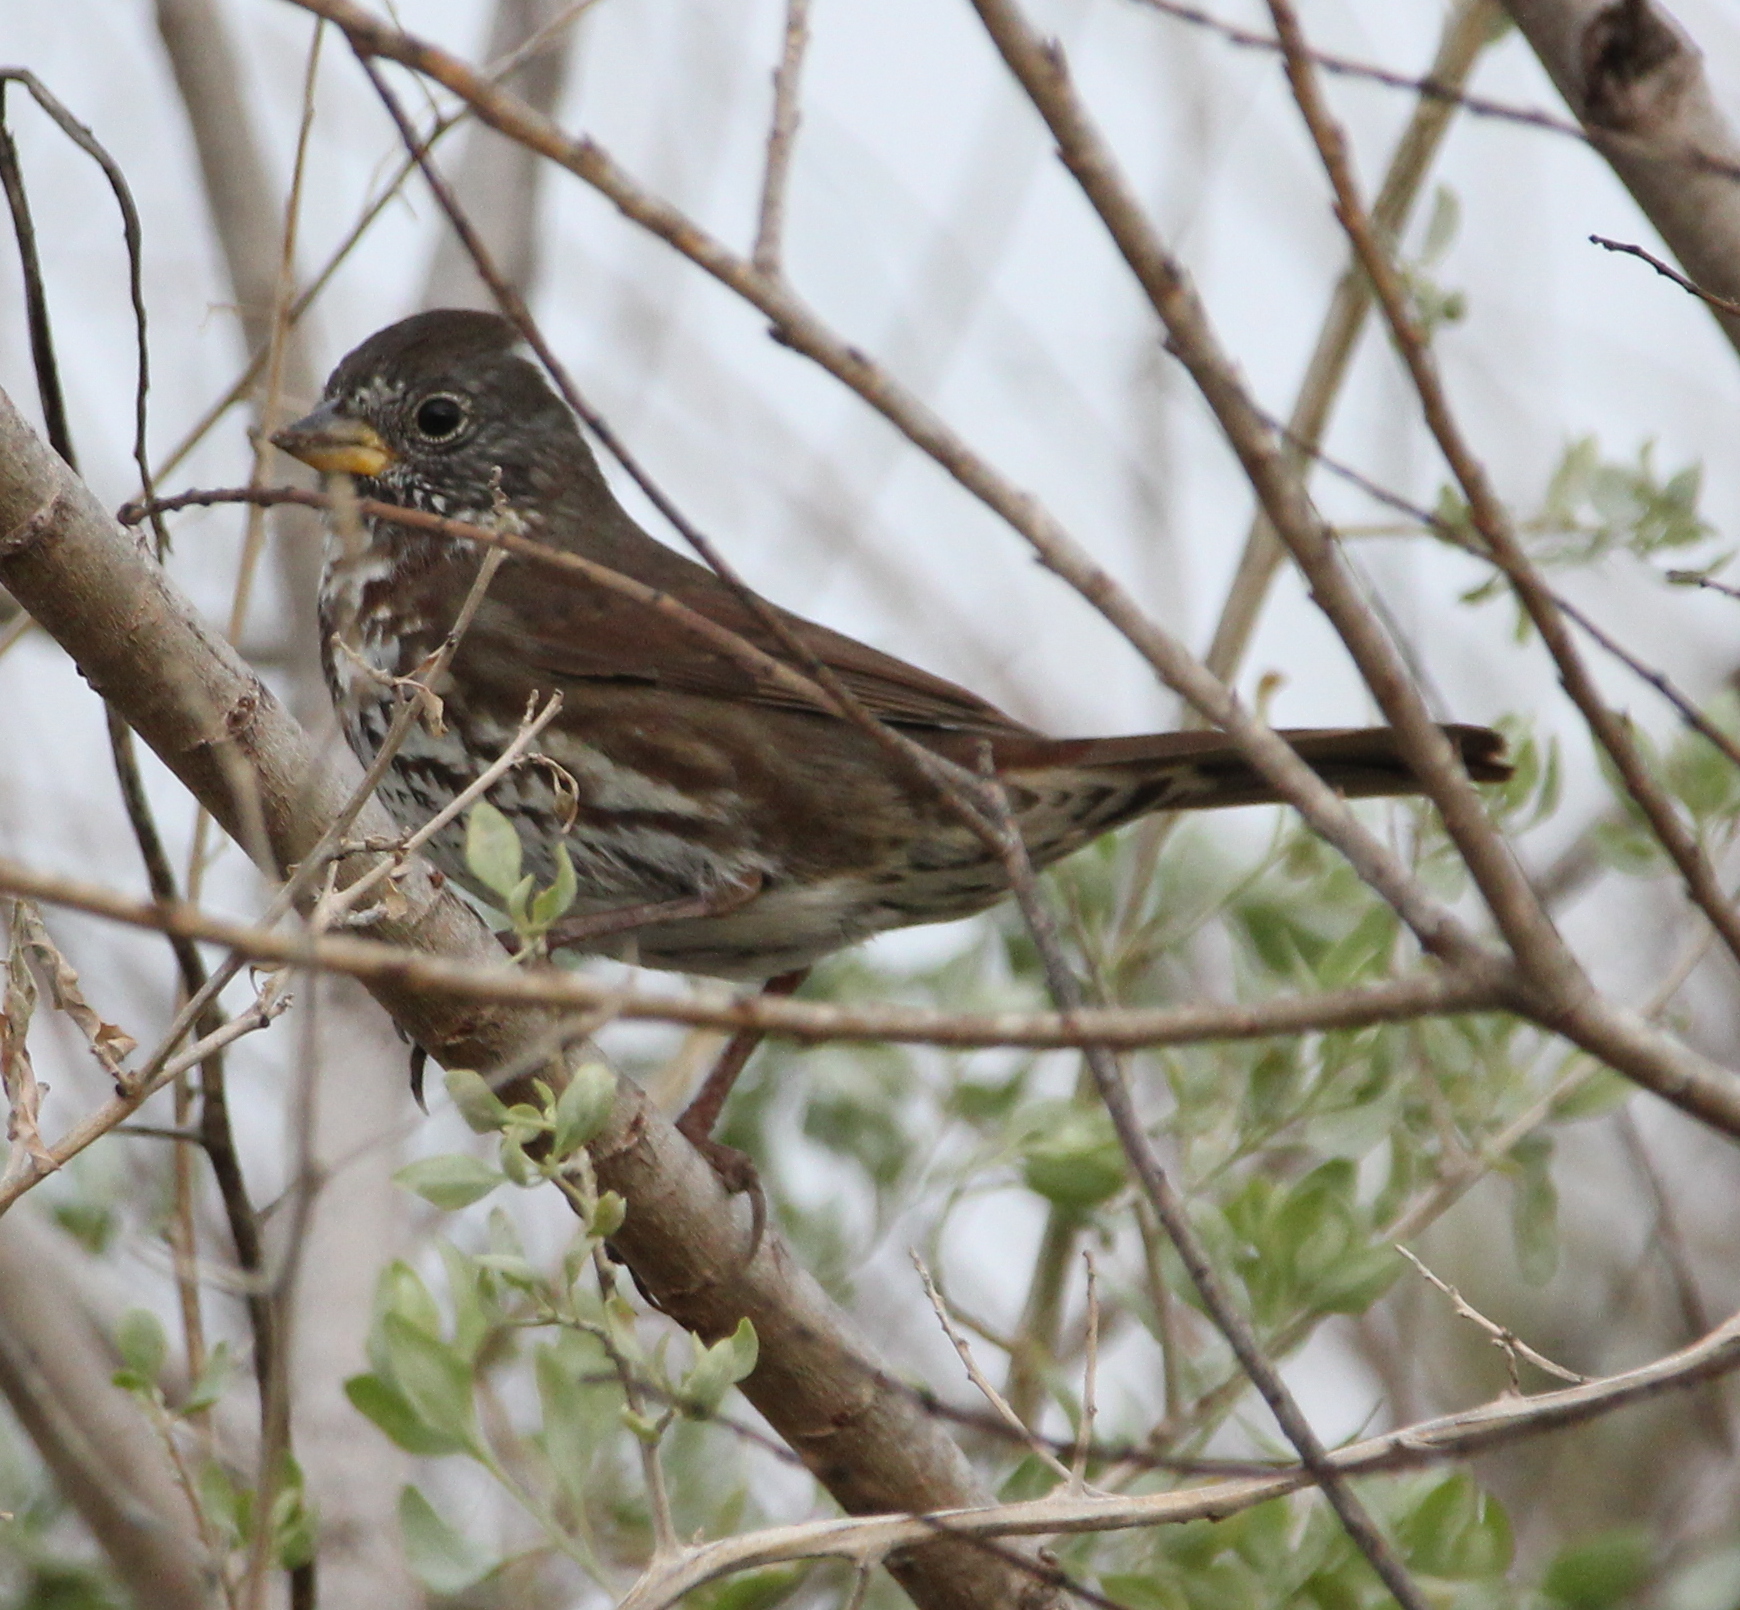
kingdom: Animalia
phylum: Chordata
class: Aves
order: Passeriformes
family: Passerellidae
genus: Passerella
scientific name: Passerella iliaca
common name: Fox sparrow
